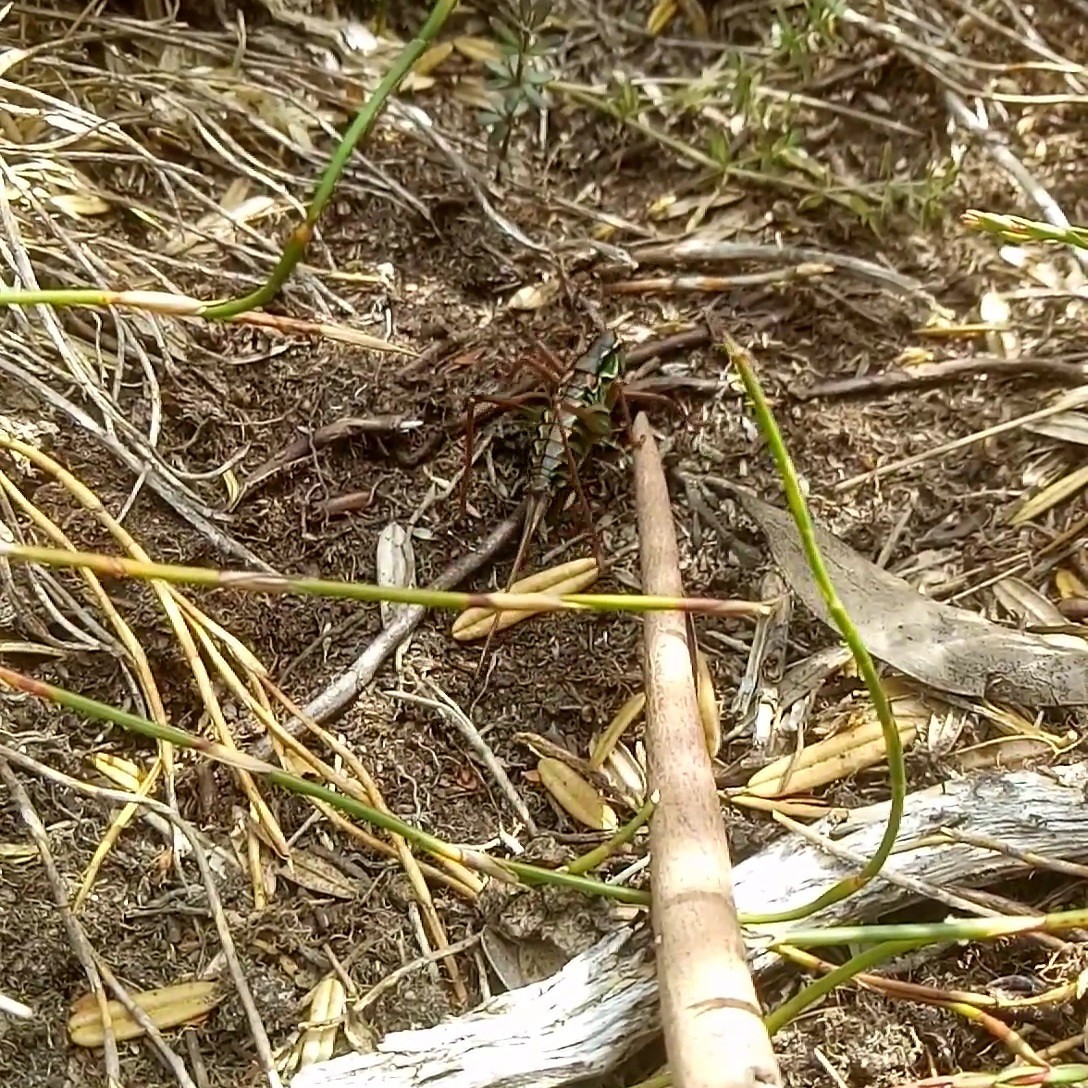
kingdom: Animalia
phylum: Arthropoda
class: Insecta
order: Orthoptera
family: Tettigoniidae
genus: Austrodectes
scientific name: Austrodectes monticolus
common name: Alpine katydid
